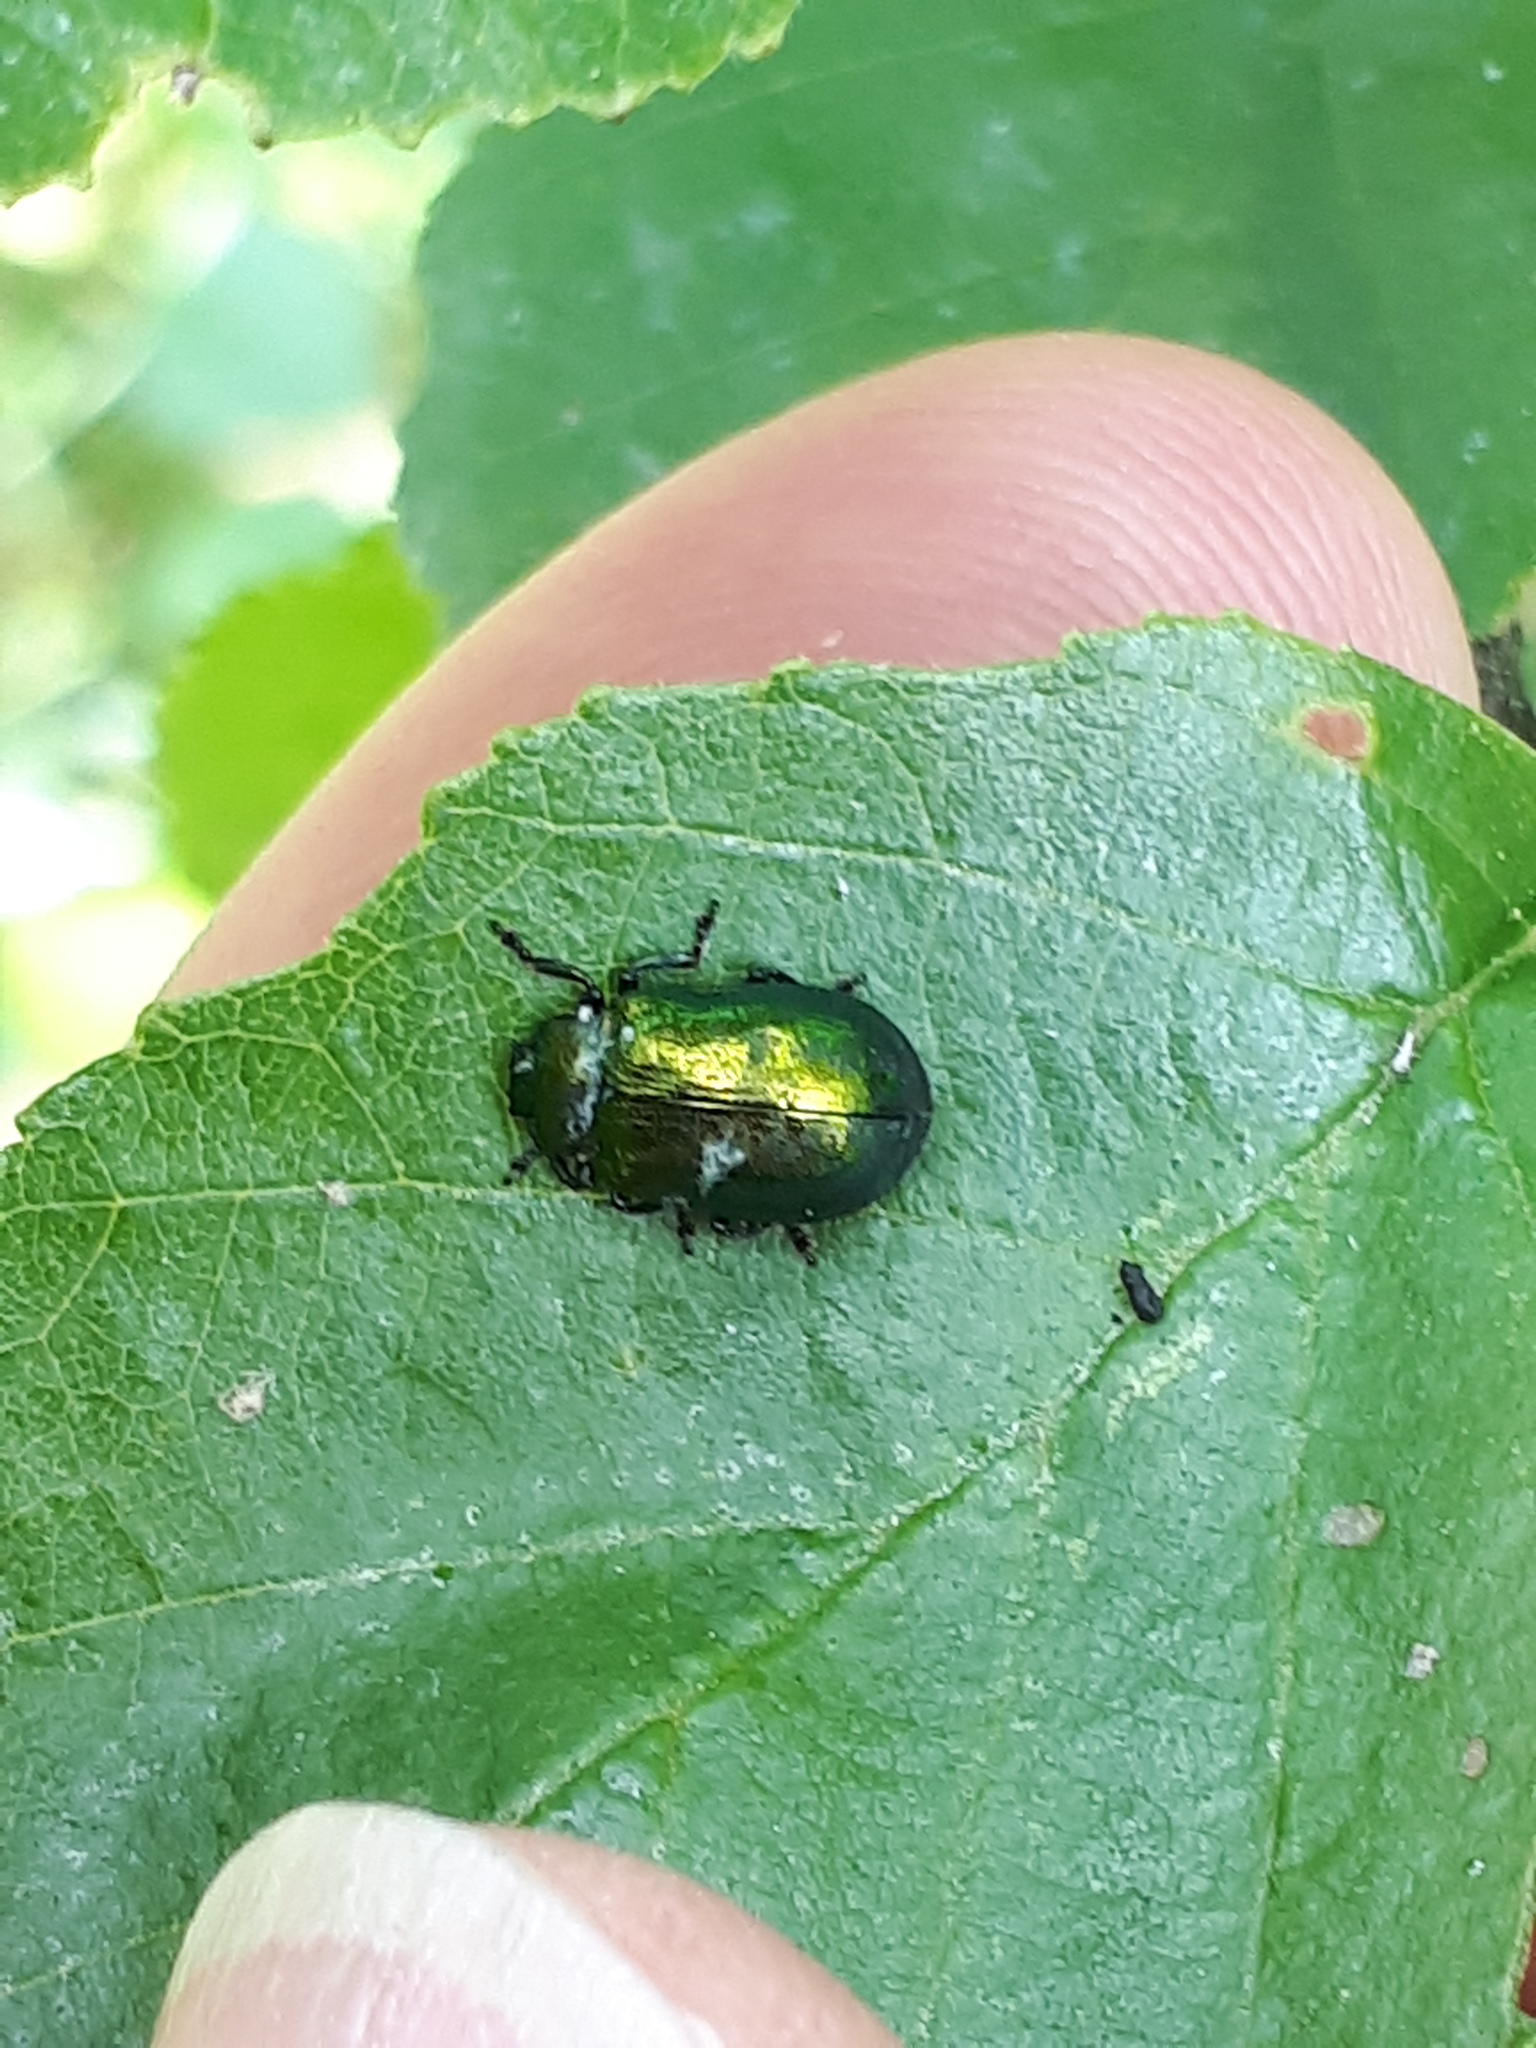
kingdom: Animalia
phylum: Arthropoda
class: Insecta
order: Coleoptera
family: Chrysomelidae
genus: Plagiosterna
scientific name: Plagiosterna aenea
